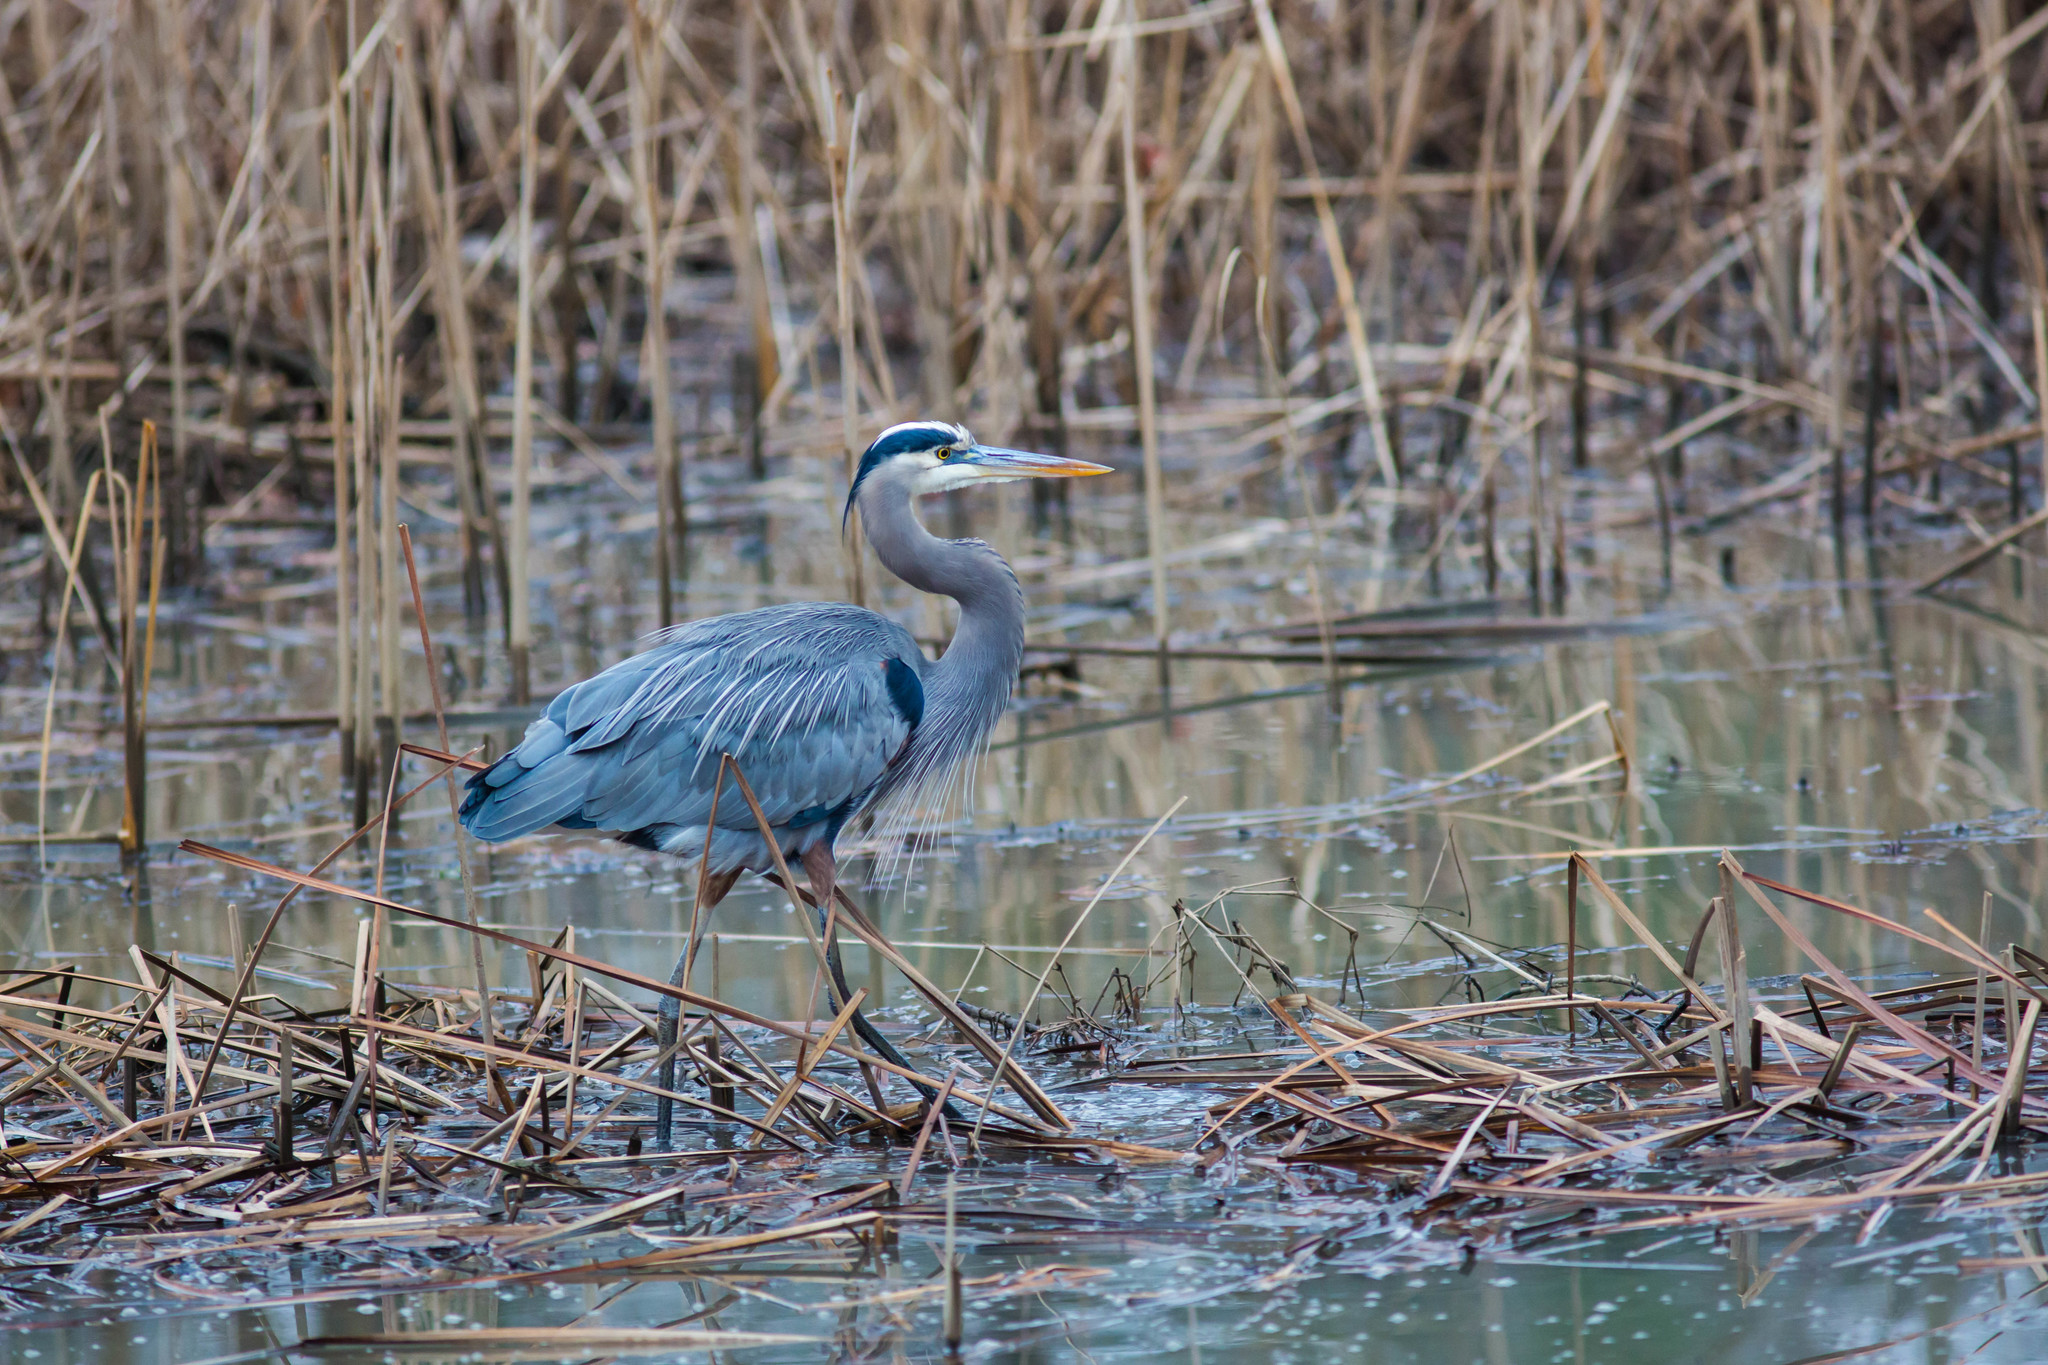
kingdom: Animalia
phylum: Chordata
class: Aves
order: Pelecaniformes
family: Ardeidae
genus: Ardea
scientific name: Ardea herodias
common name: Great blue heron
